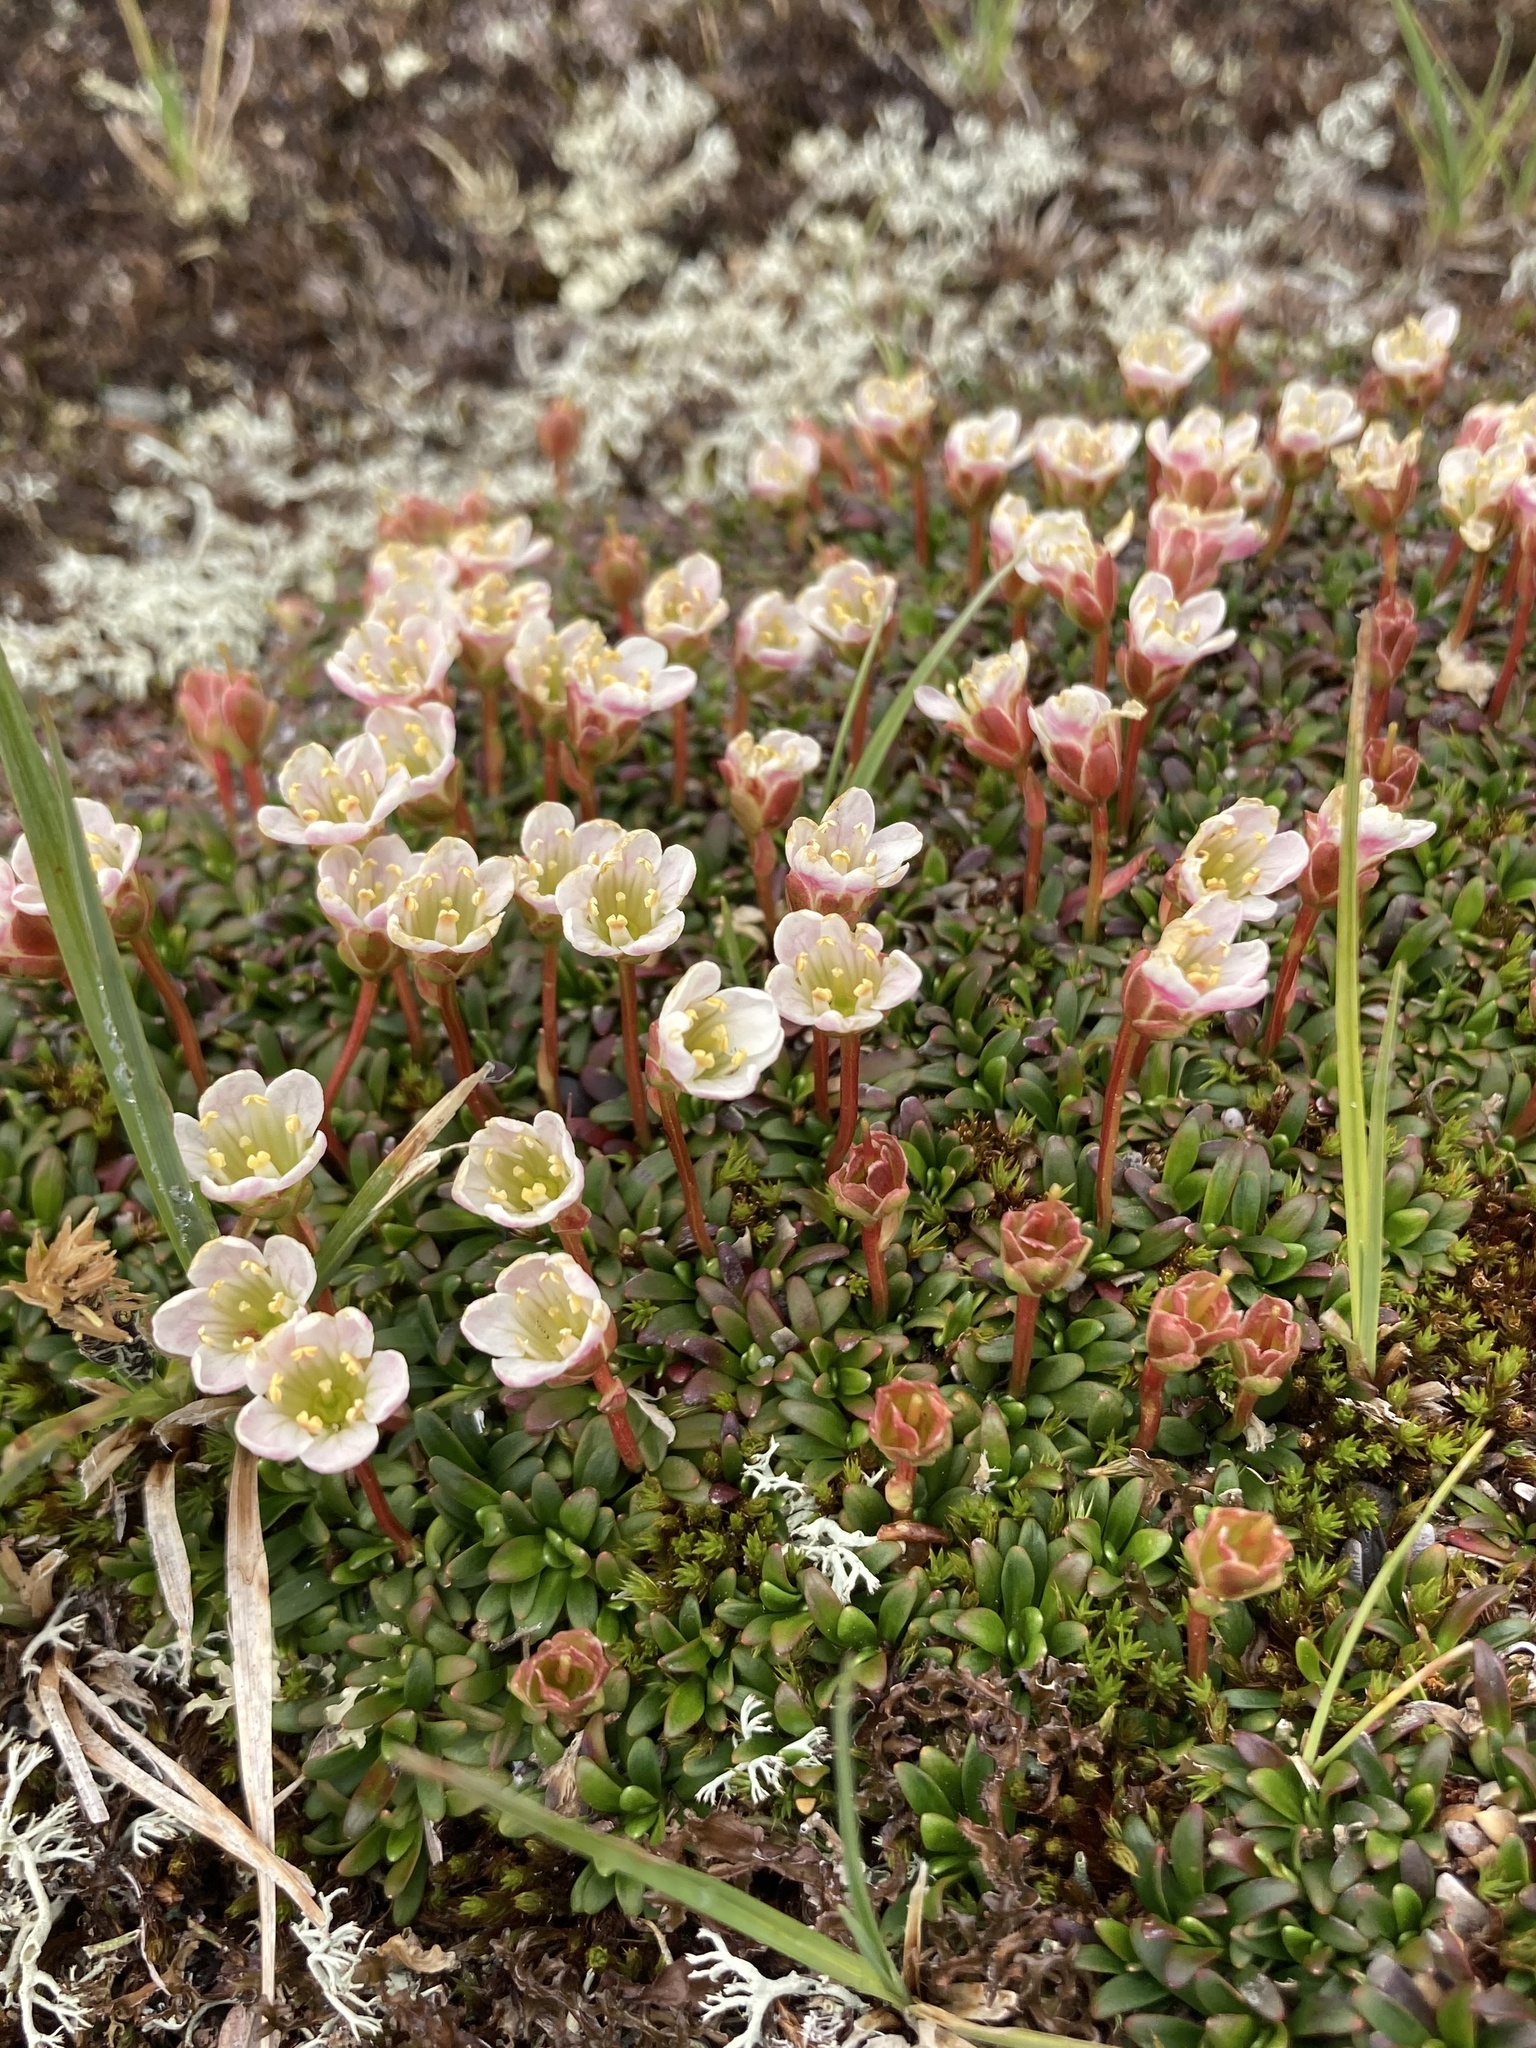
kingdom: Plantae
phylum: Tracheophyta
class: Magnoliopsida
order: Ericales
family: Diapensiaceae
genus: Diapensia
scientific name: Diapensia lapponica
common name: Diapensia
